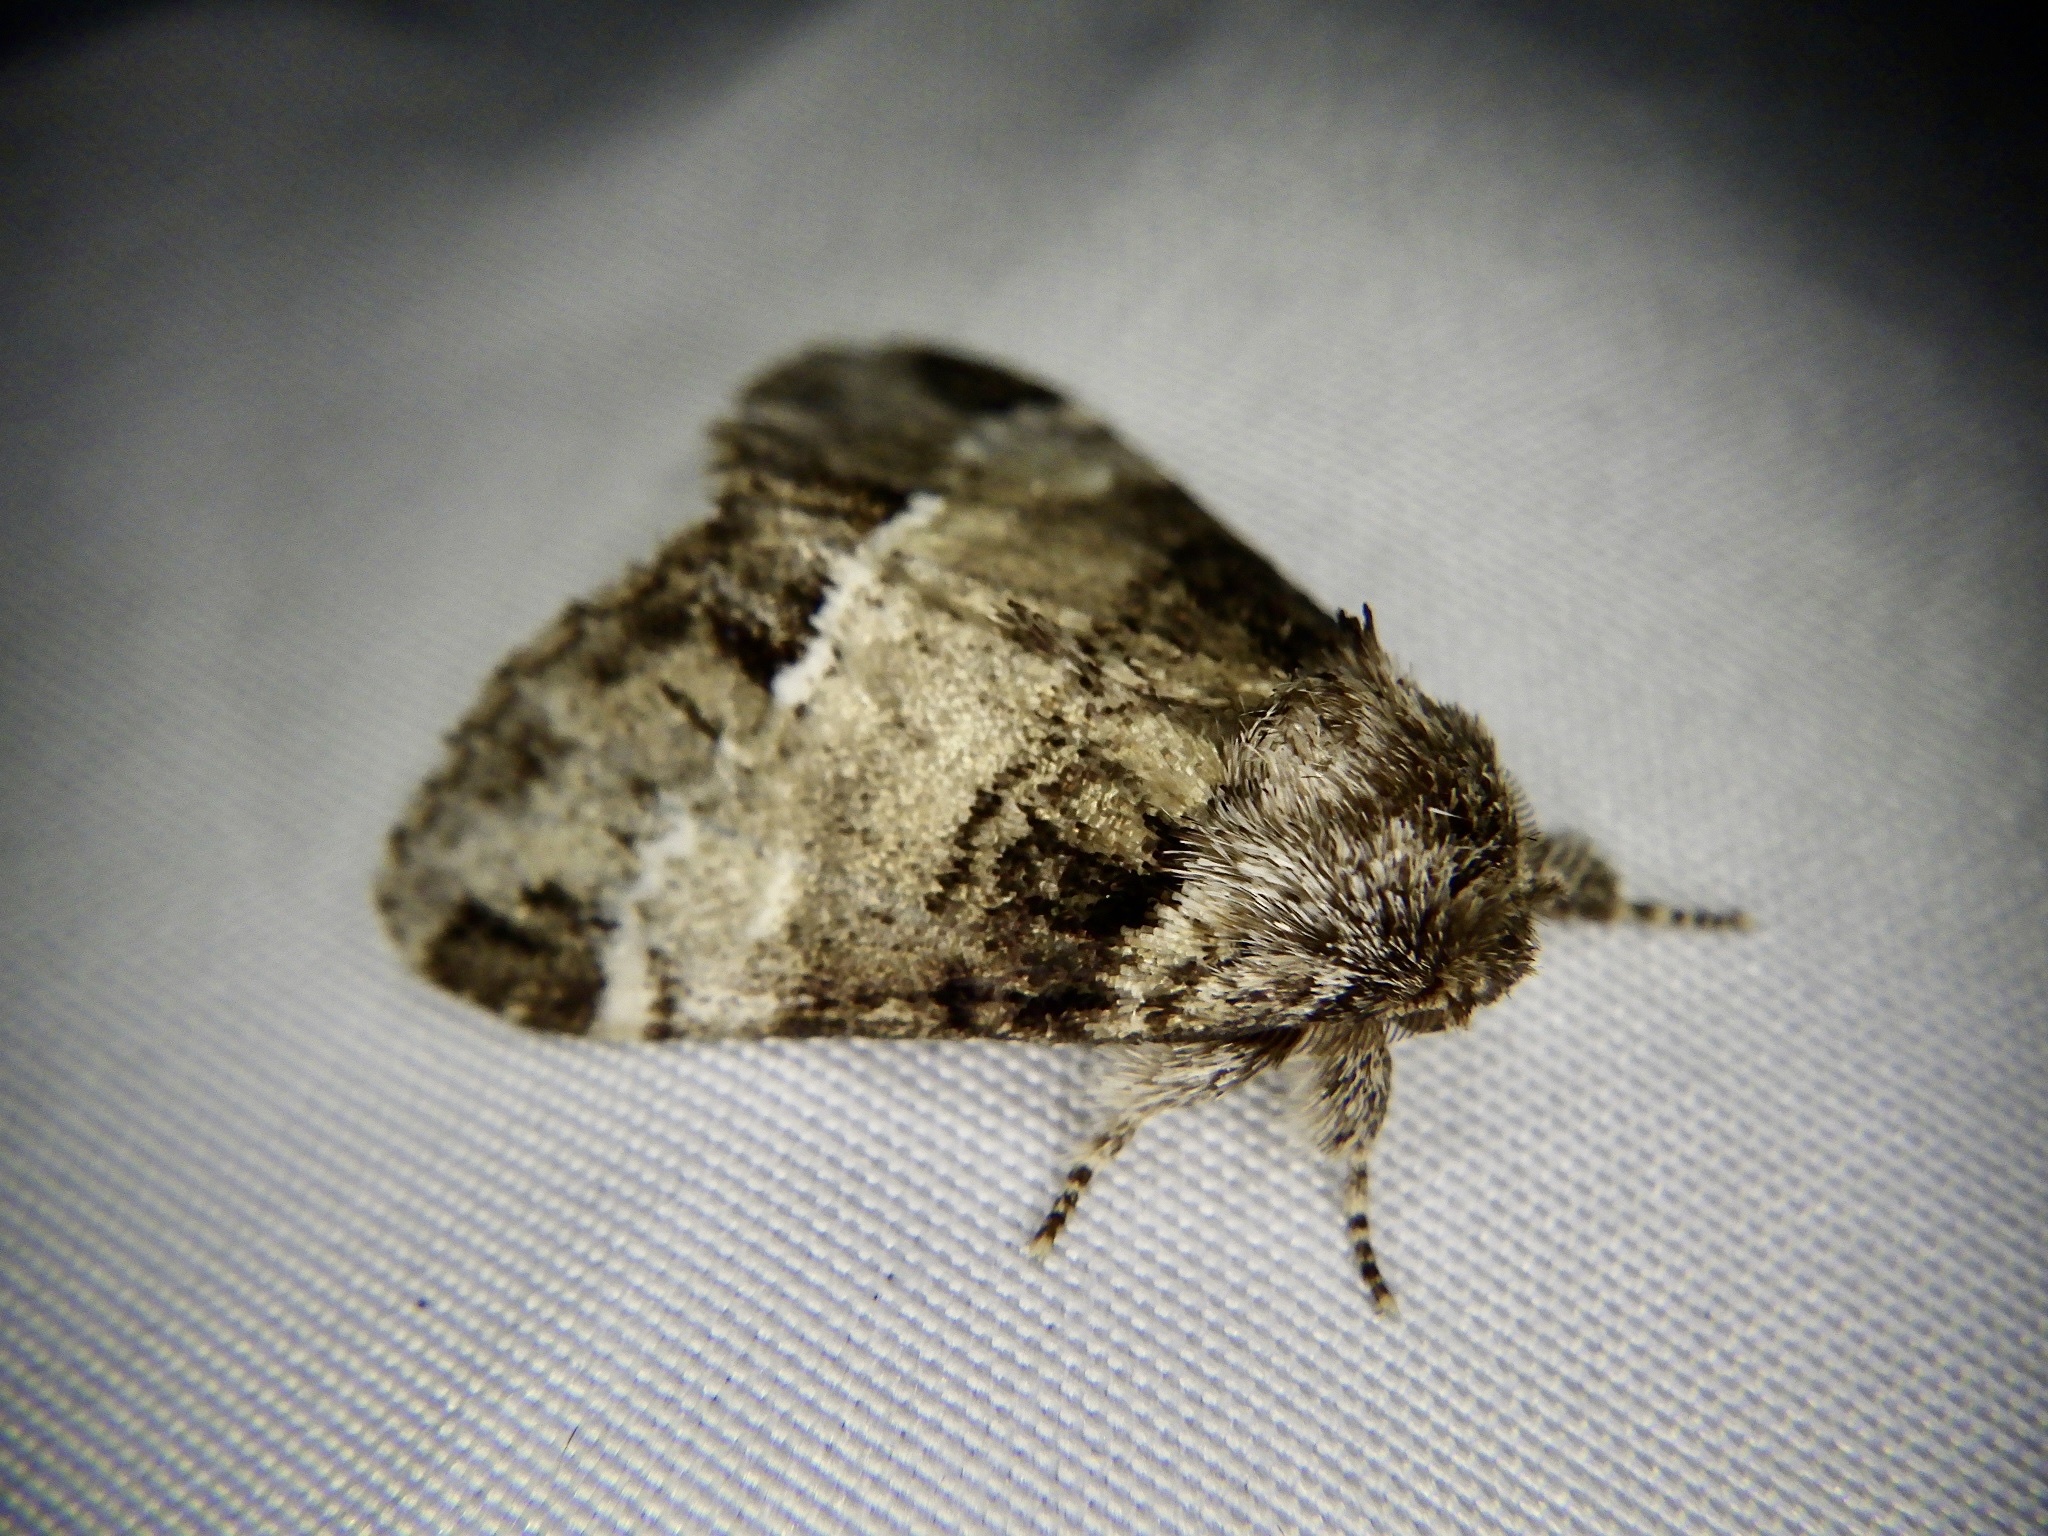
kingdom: Animalia
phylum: Arthropoda
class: Insecta
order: Lepidoptera
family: Notodontidae
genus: Drymonia
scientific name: Drymonia japonica
